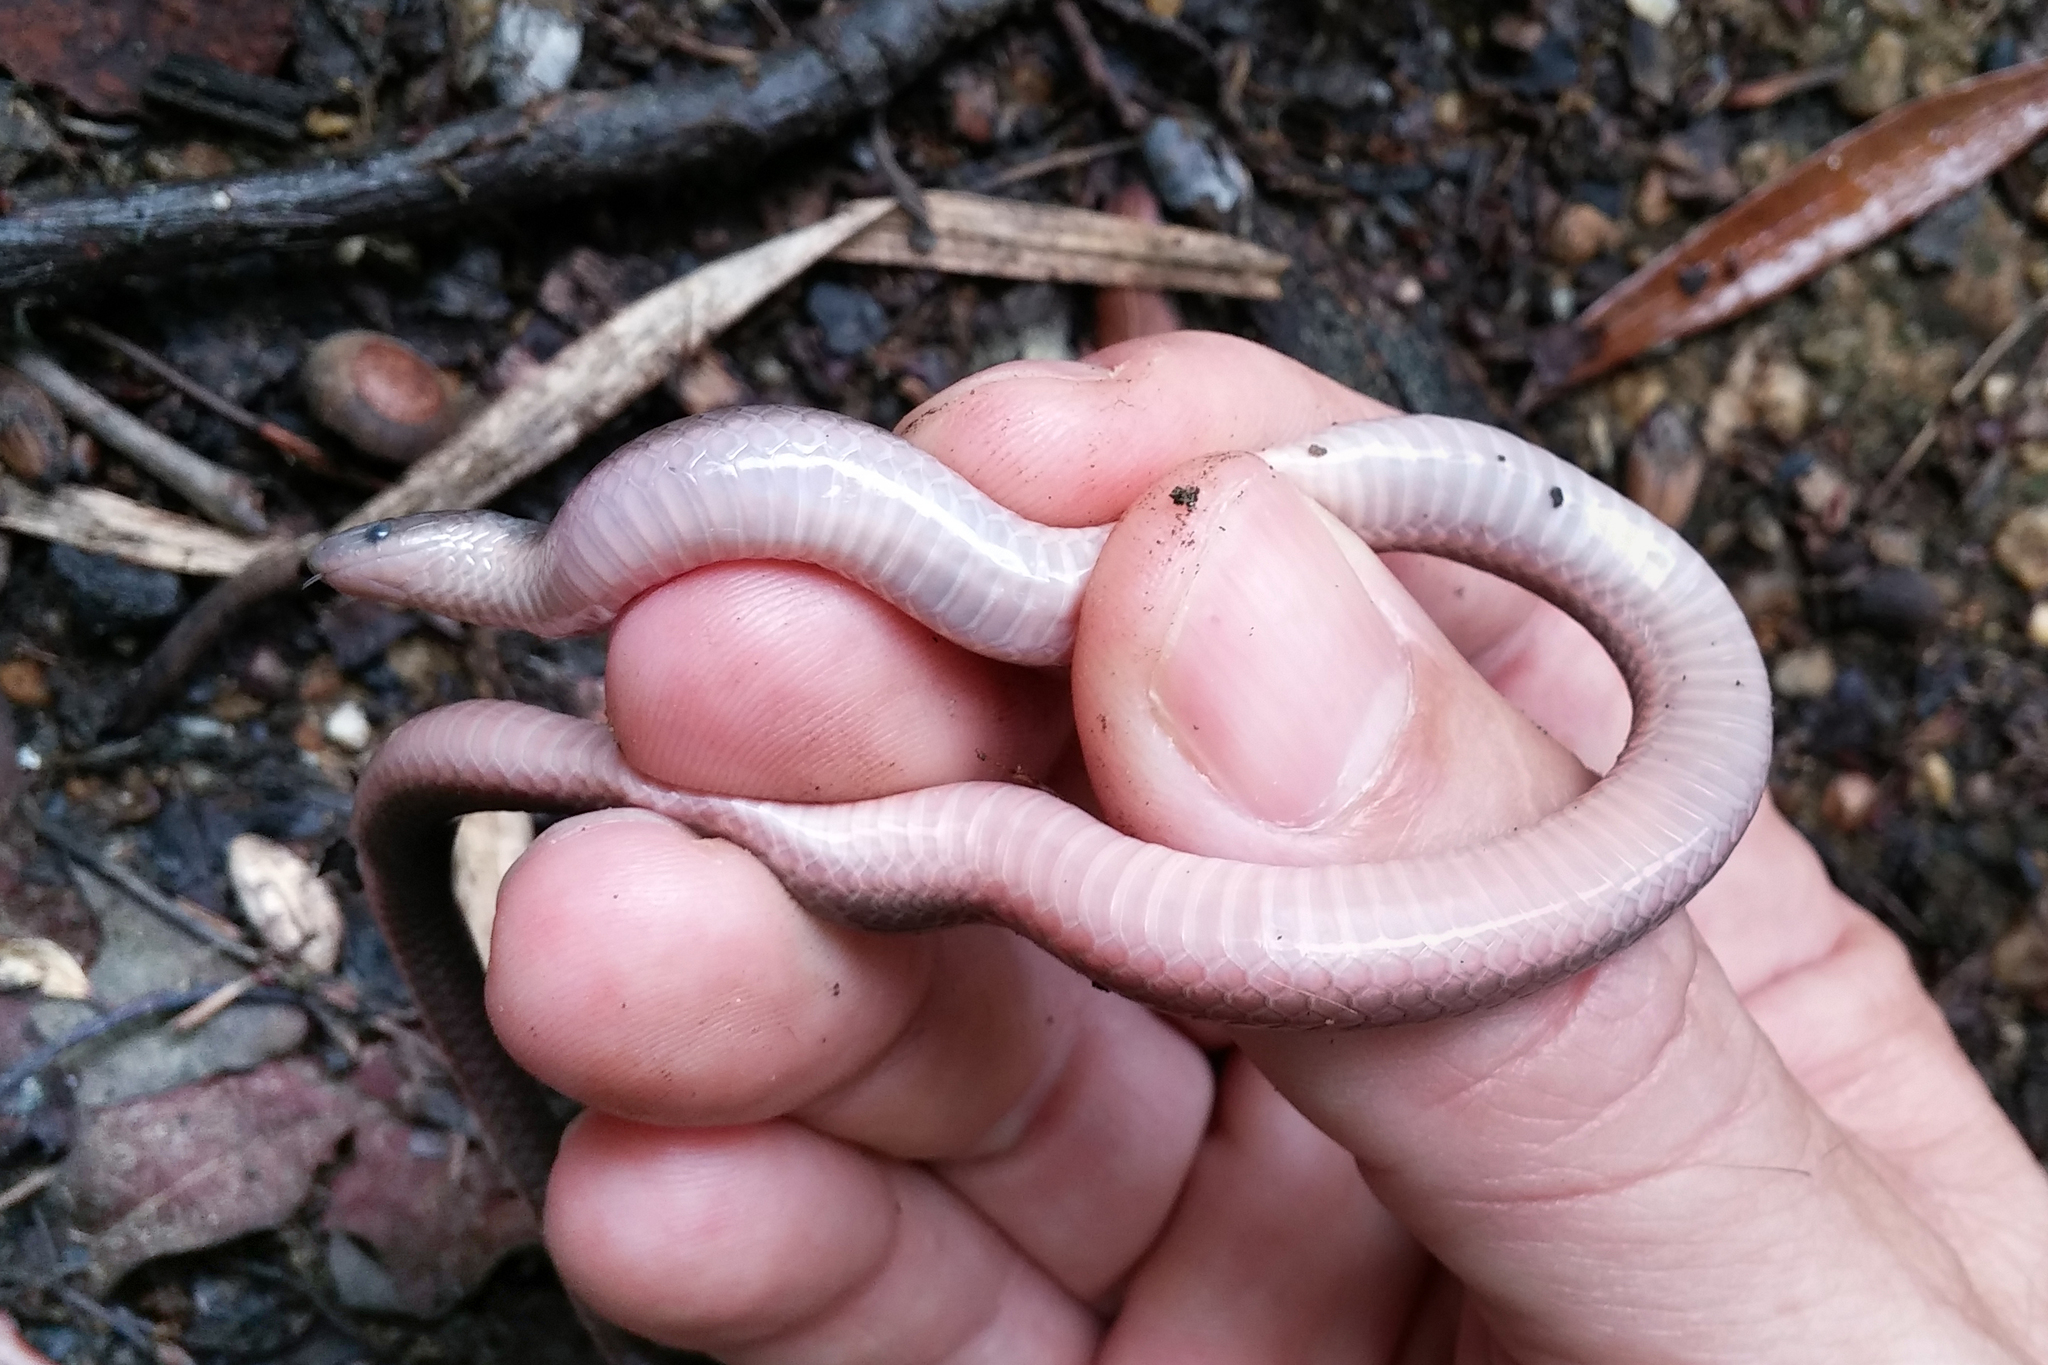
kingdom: Animalia
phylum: Chordata
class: Squamata
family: Colubridae
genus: Carphophis
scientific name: Carphophis amoenus
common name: Eastern worm snake
